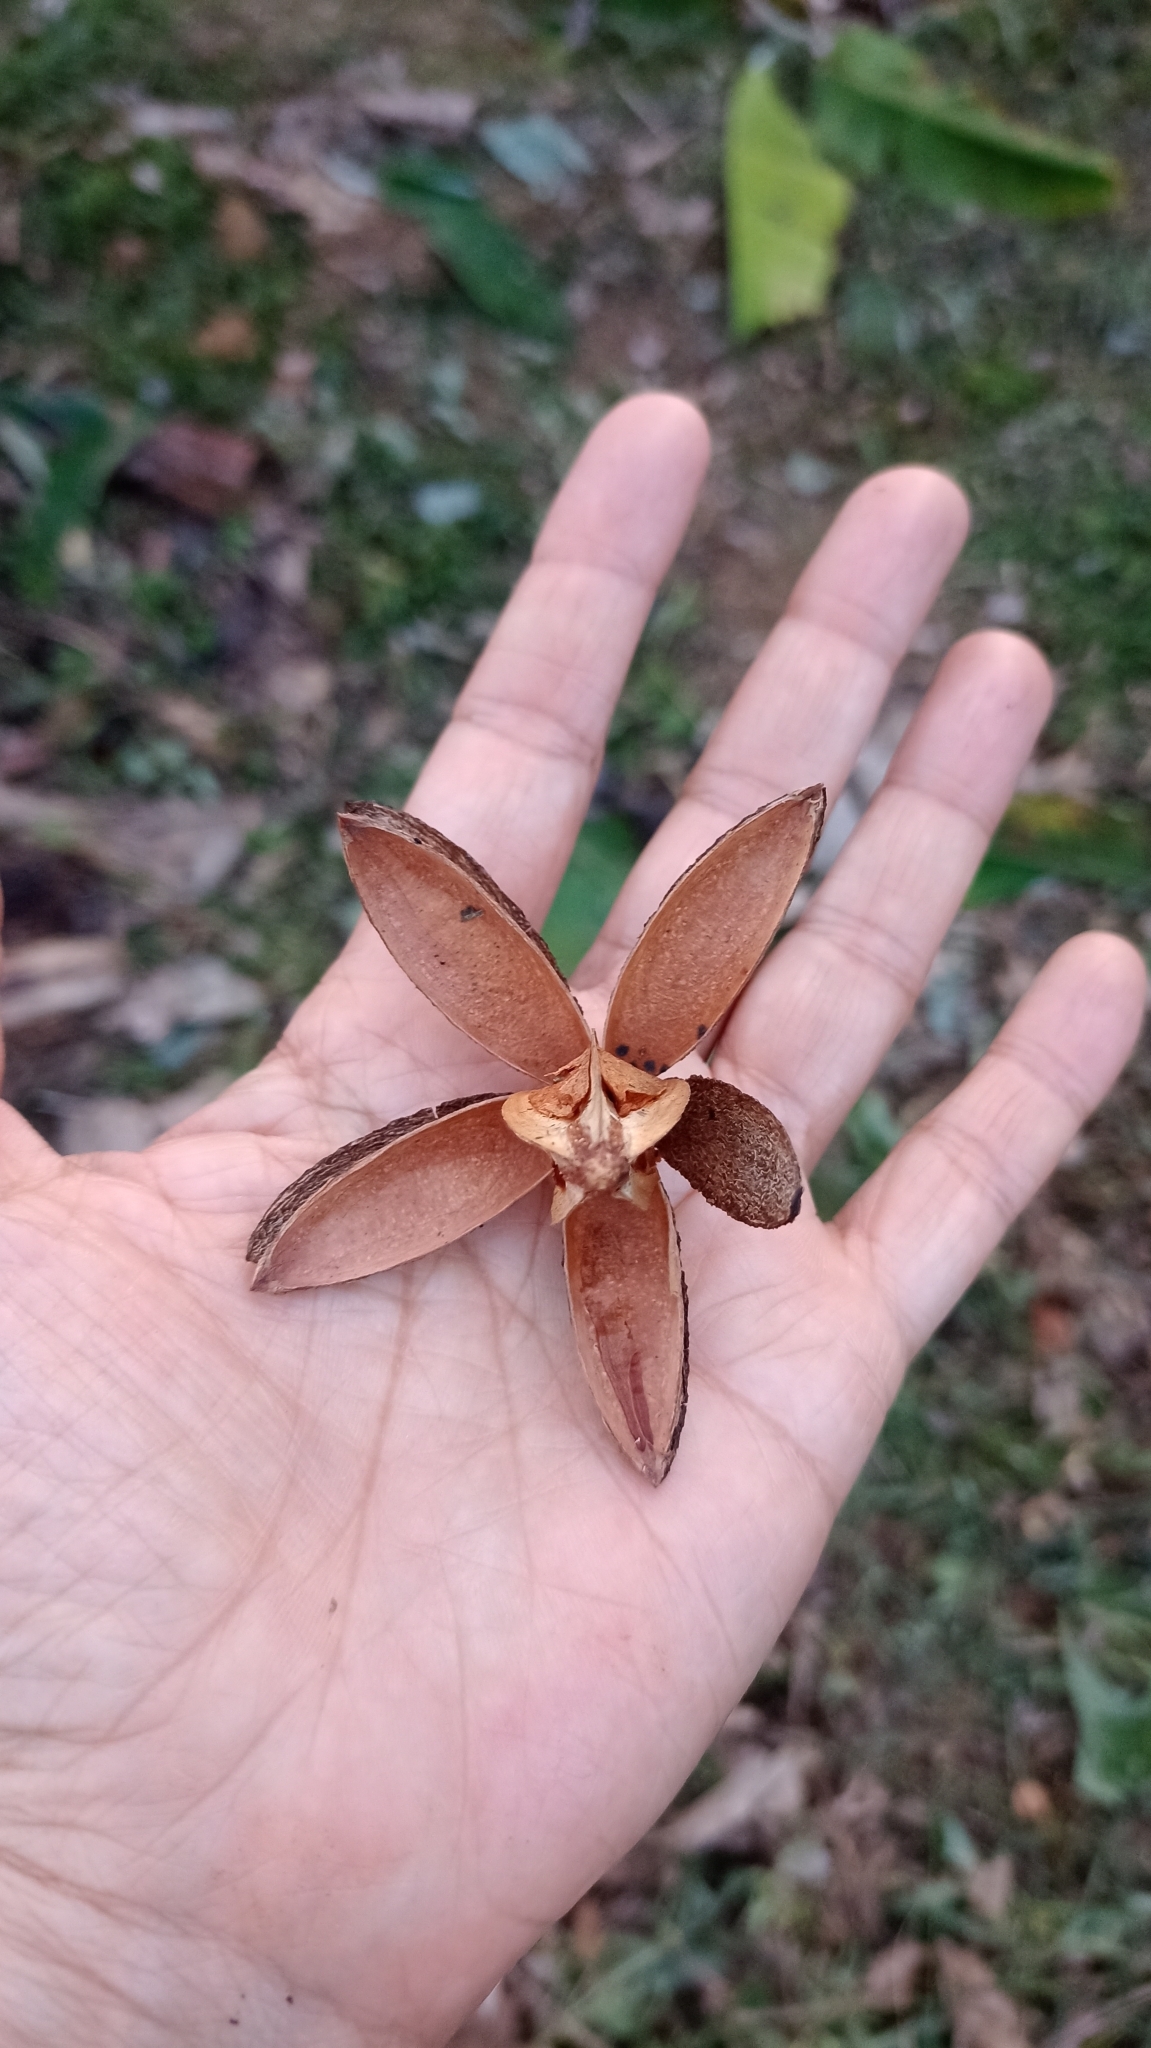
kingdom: Plantae
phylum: Tracheophyta
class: Magnoliopsida
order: Sapindales
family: Meliaceae
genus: Cedrela
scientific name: Cedrela odorata
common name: Red cedar
